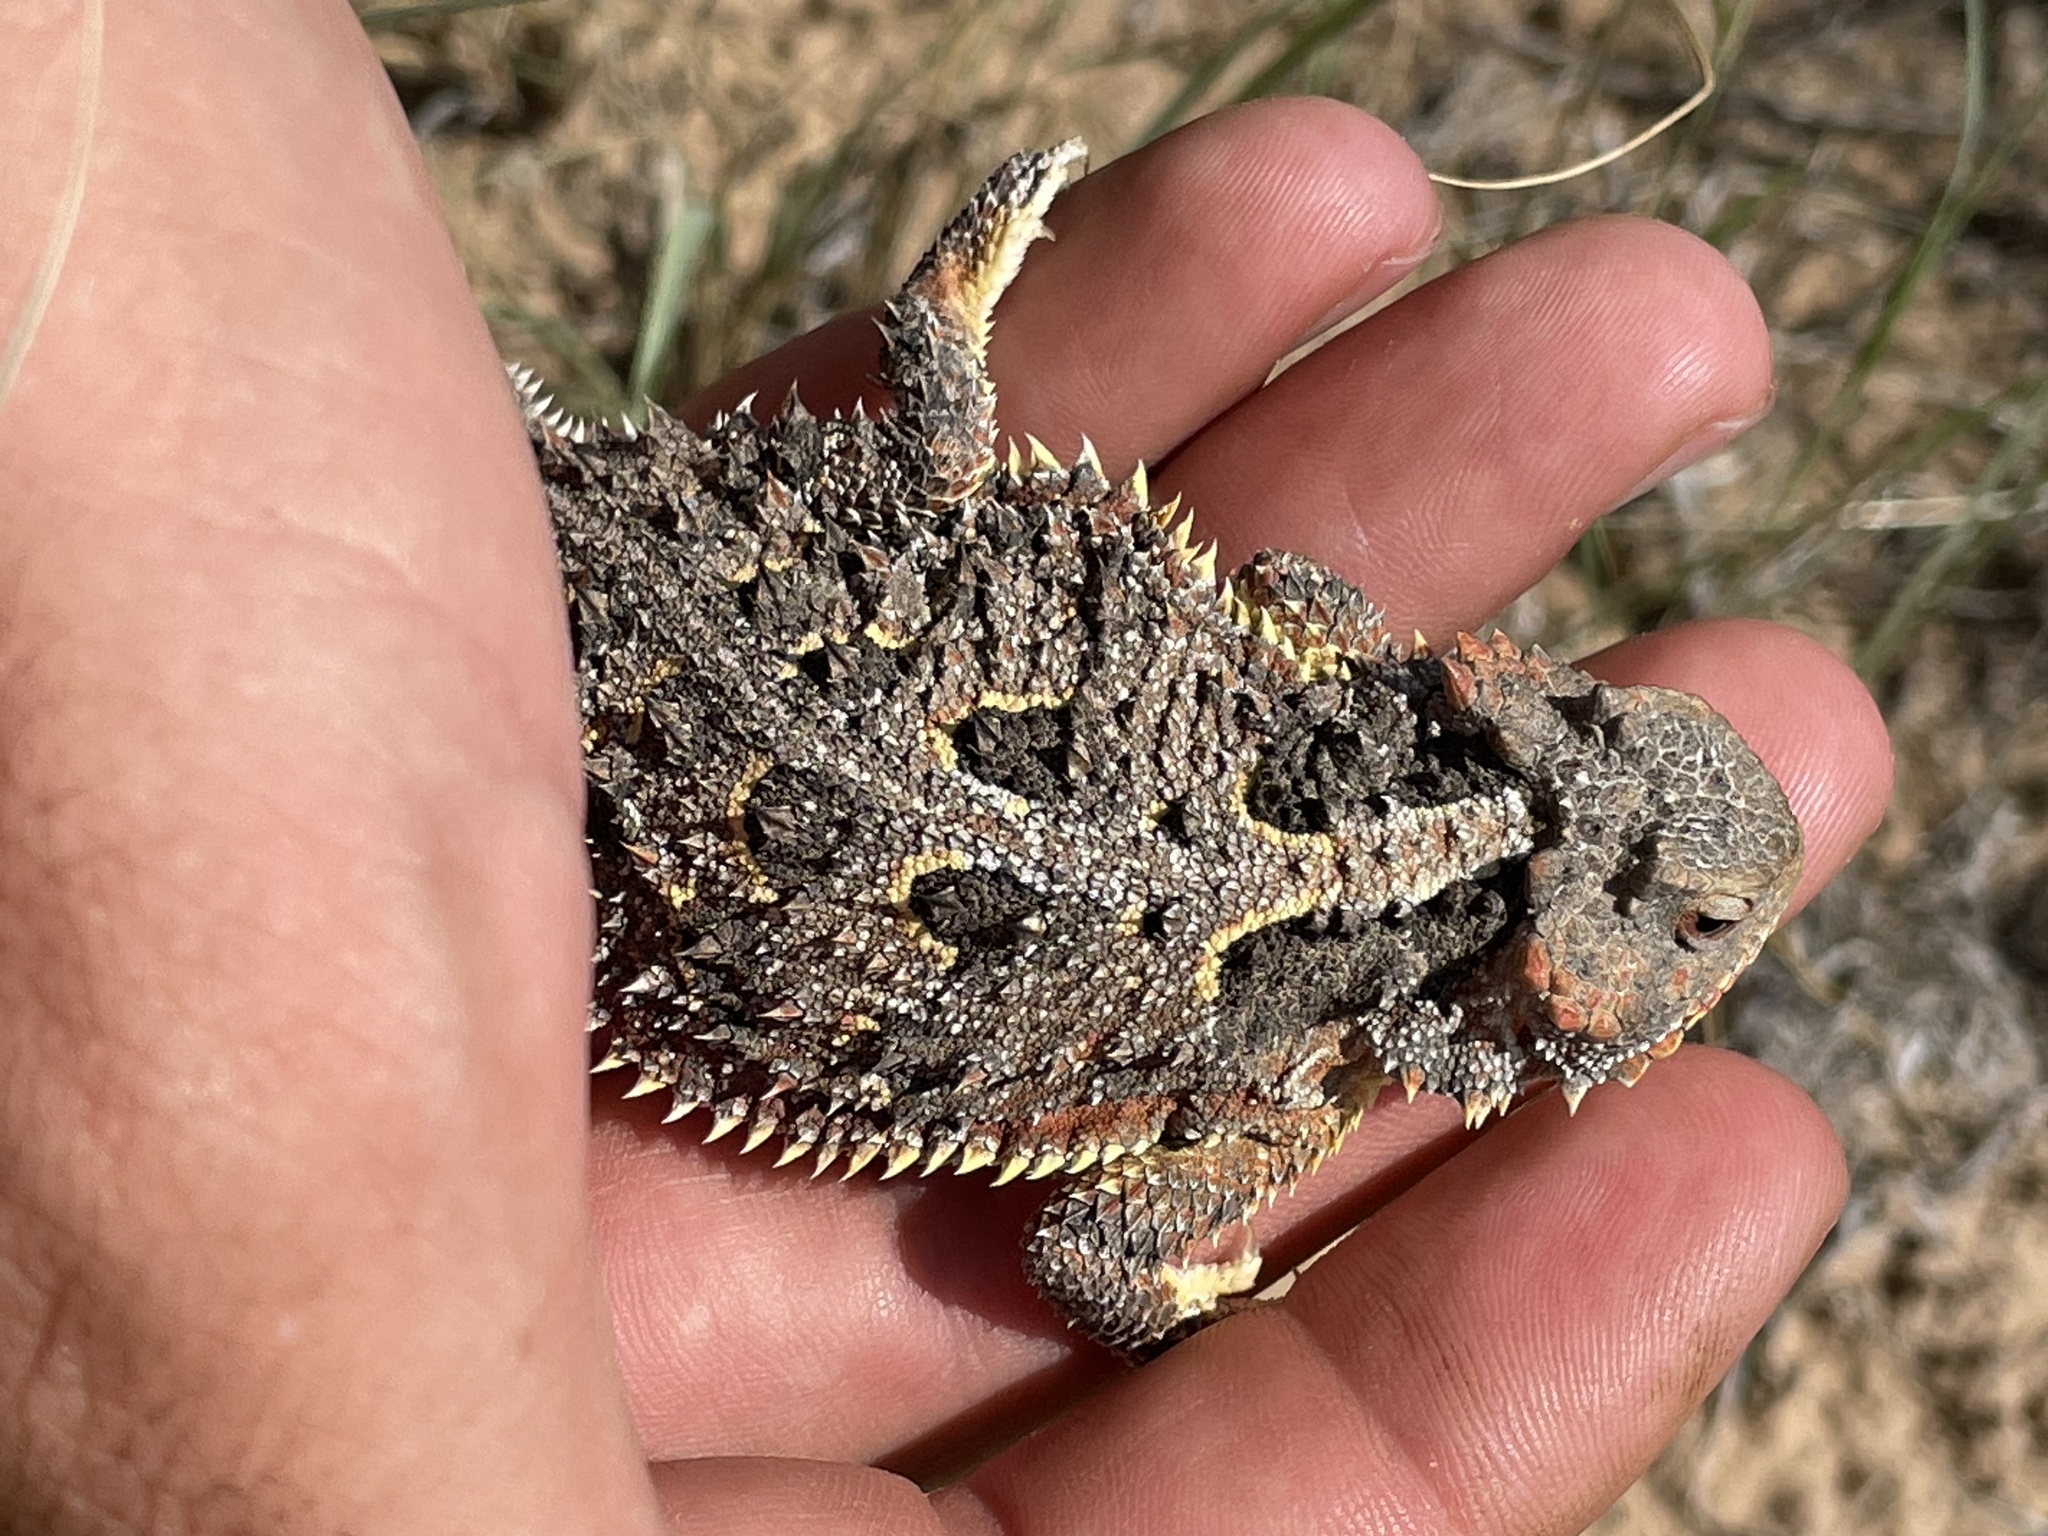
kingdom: Animalia
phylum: Chordata
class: Squamata
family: Phrynosomatidae
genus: Phrynosoma
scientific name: Phrynosoma hernandesi
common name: Greater short-horned lizard
